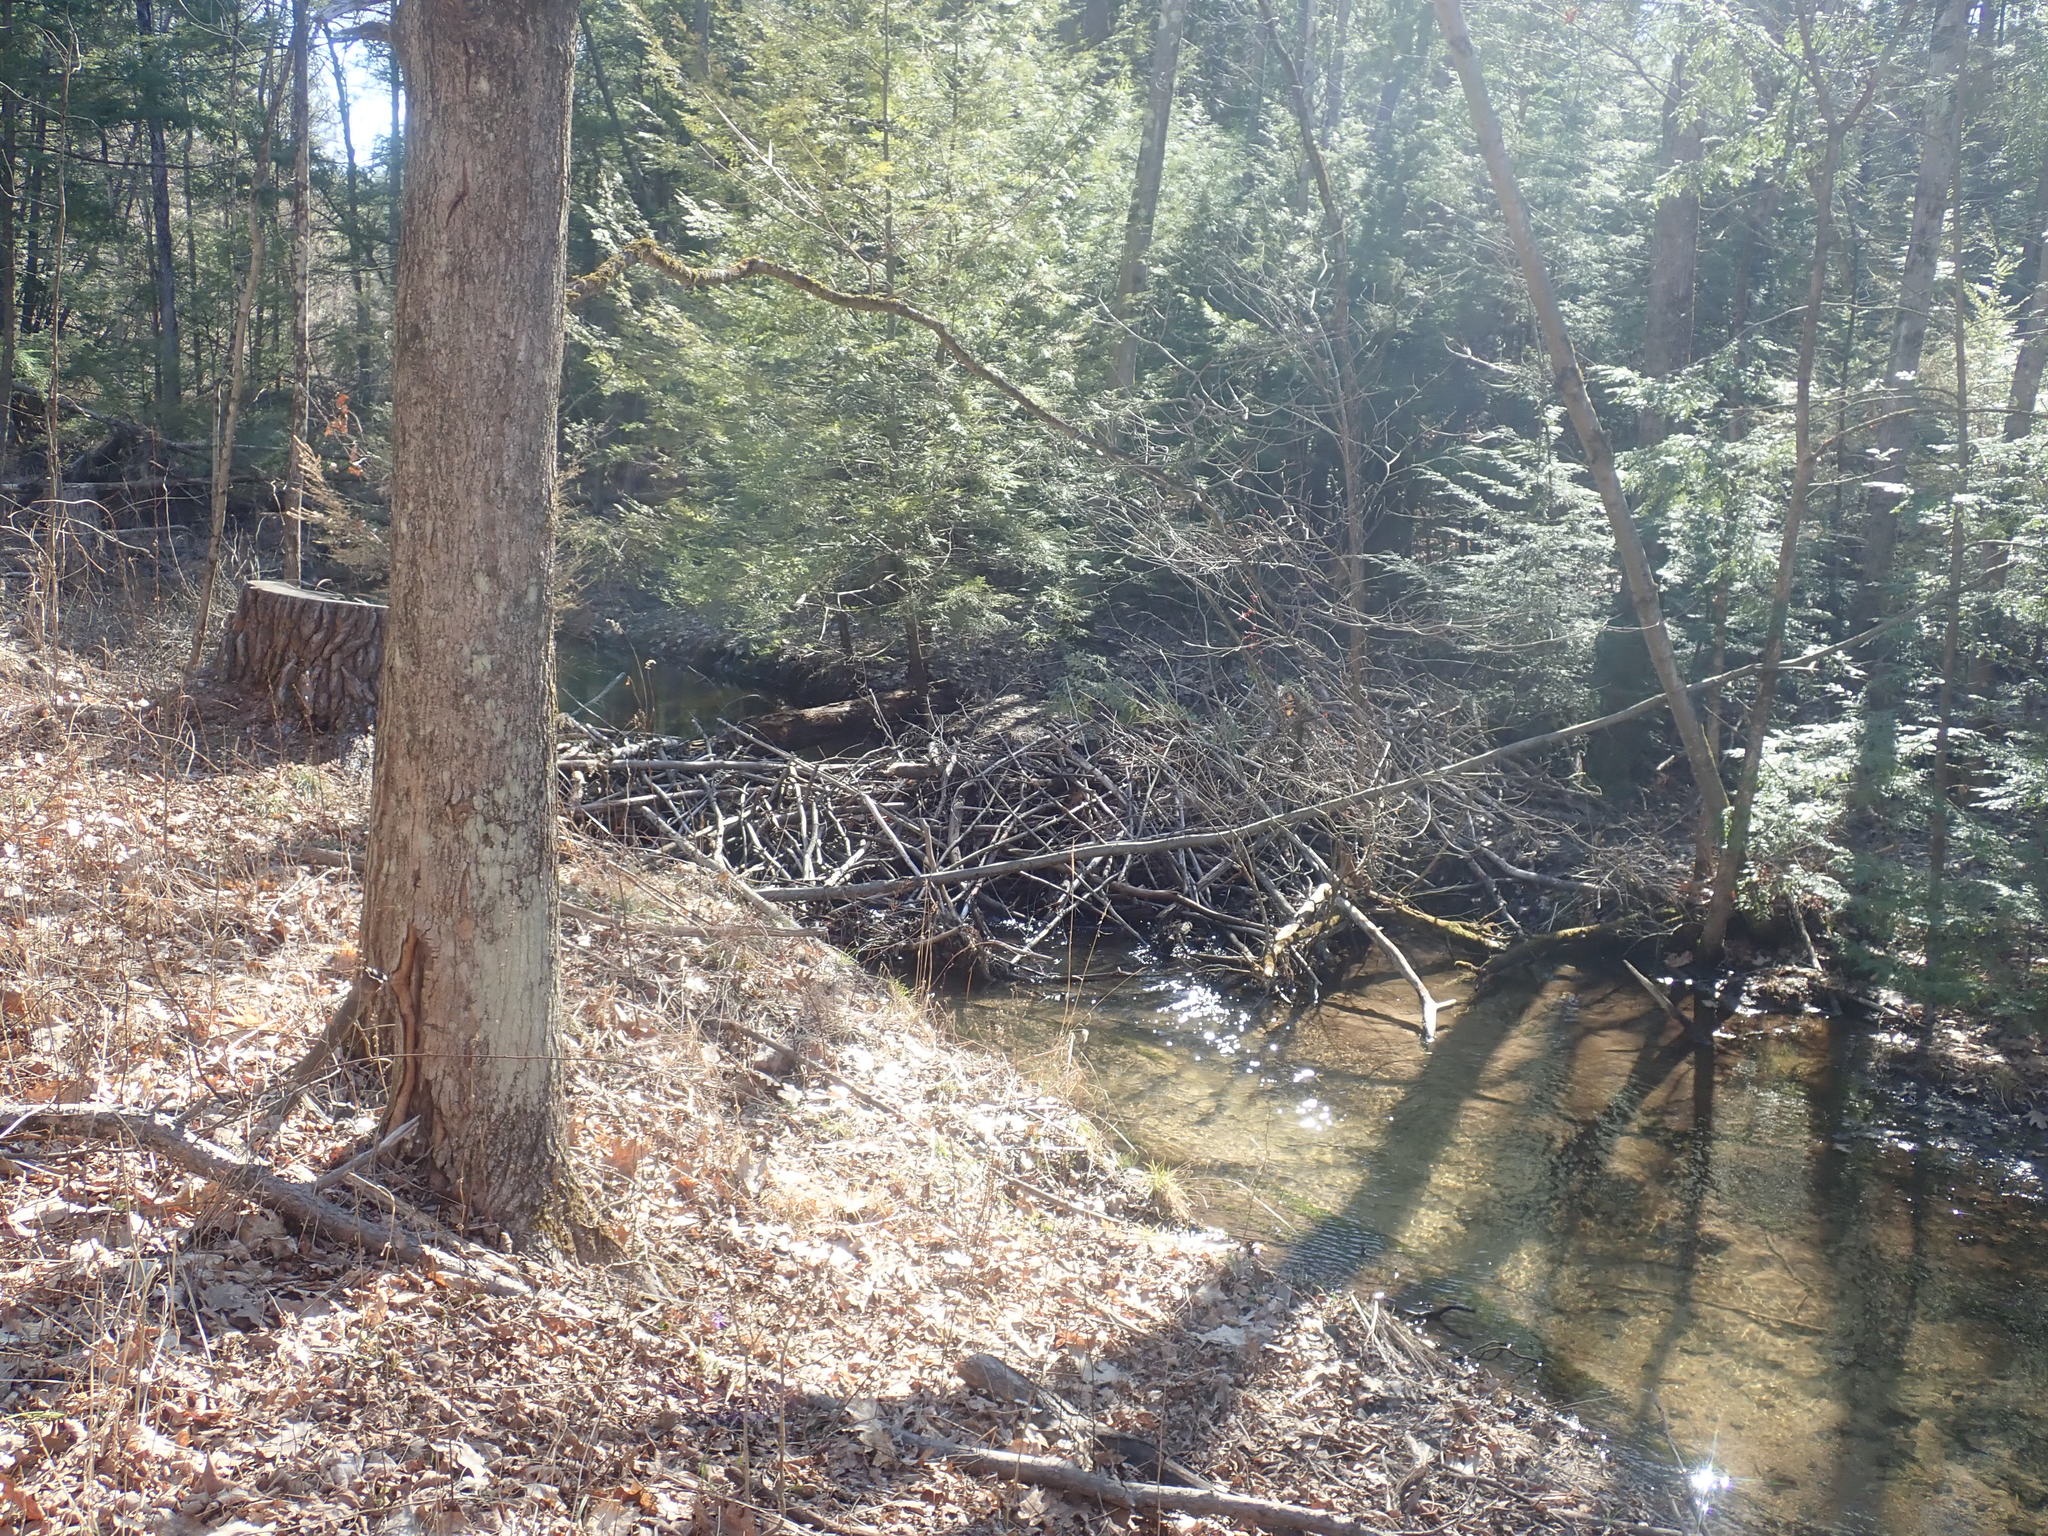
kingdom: Animalia
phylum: Chordata
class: Mammalia
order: Rodentia
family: Castoridae
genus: Castor
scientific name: Castor canadensis
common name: American beaver
